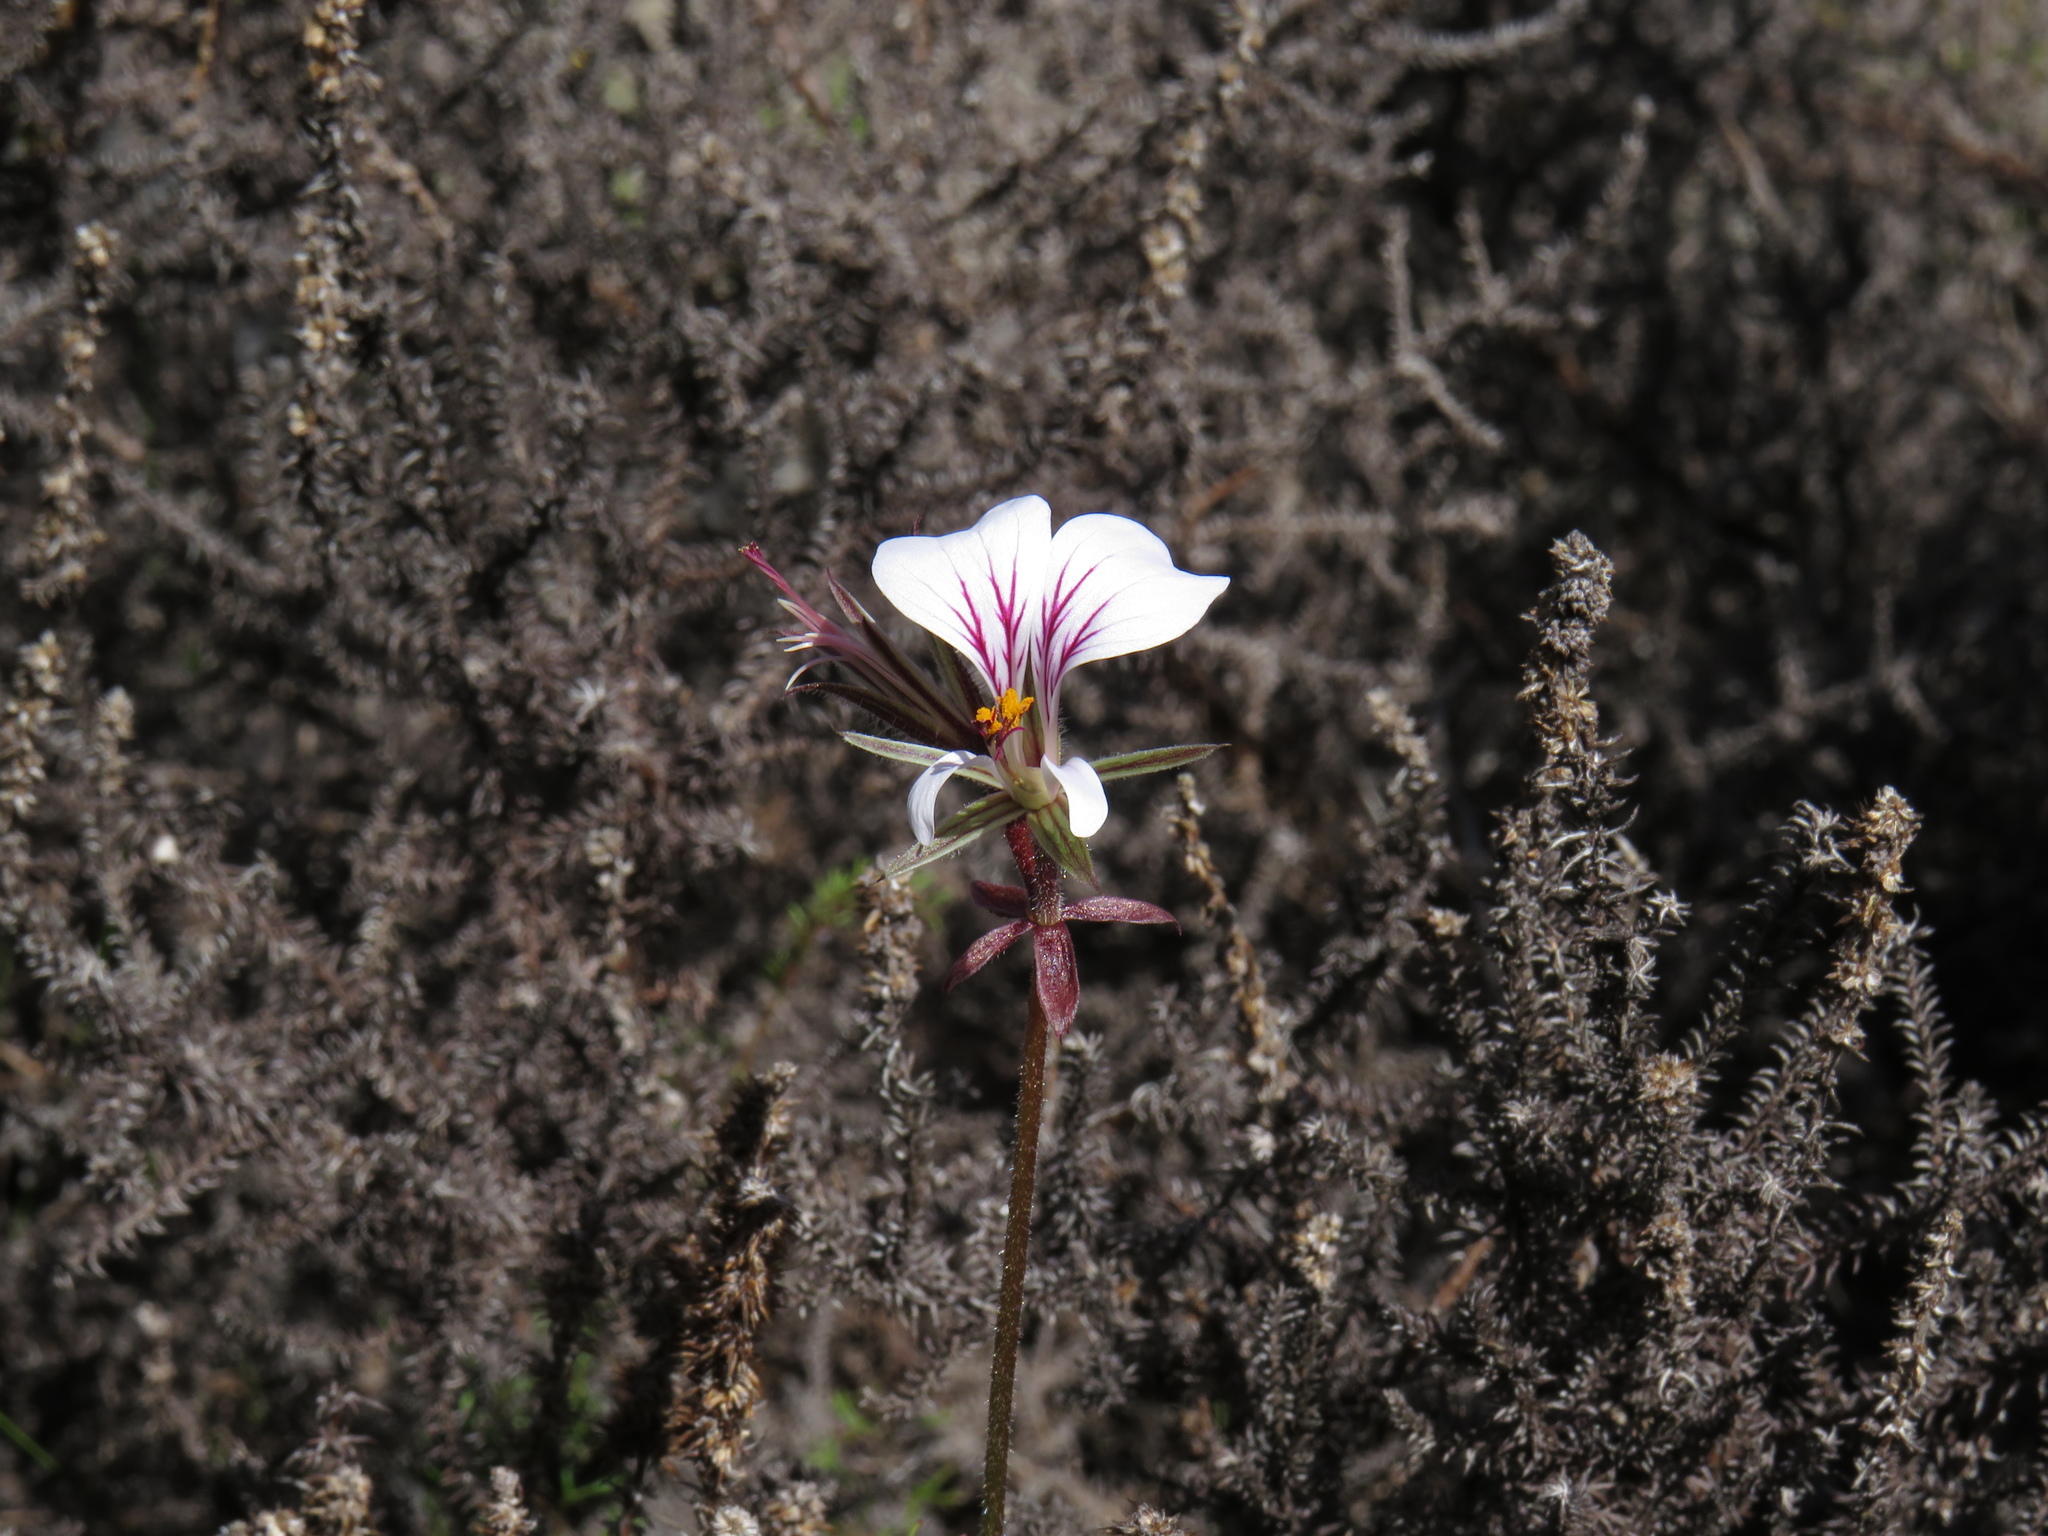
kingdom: Plantae
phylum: Tracheophyta
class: Magnoliopsida
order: Geraniales
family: Geraniaceae
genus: Pelargonium
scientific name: Pelargonium myrrhifolium
